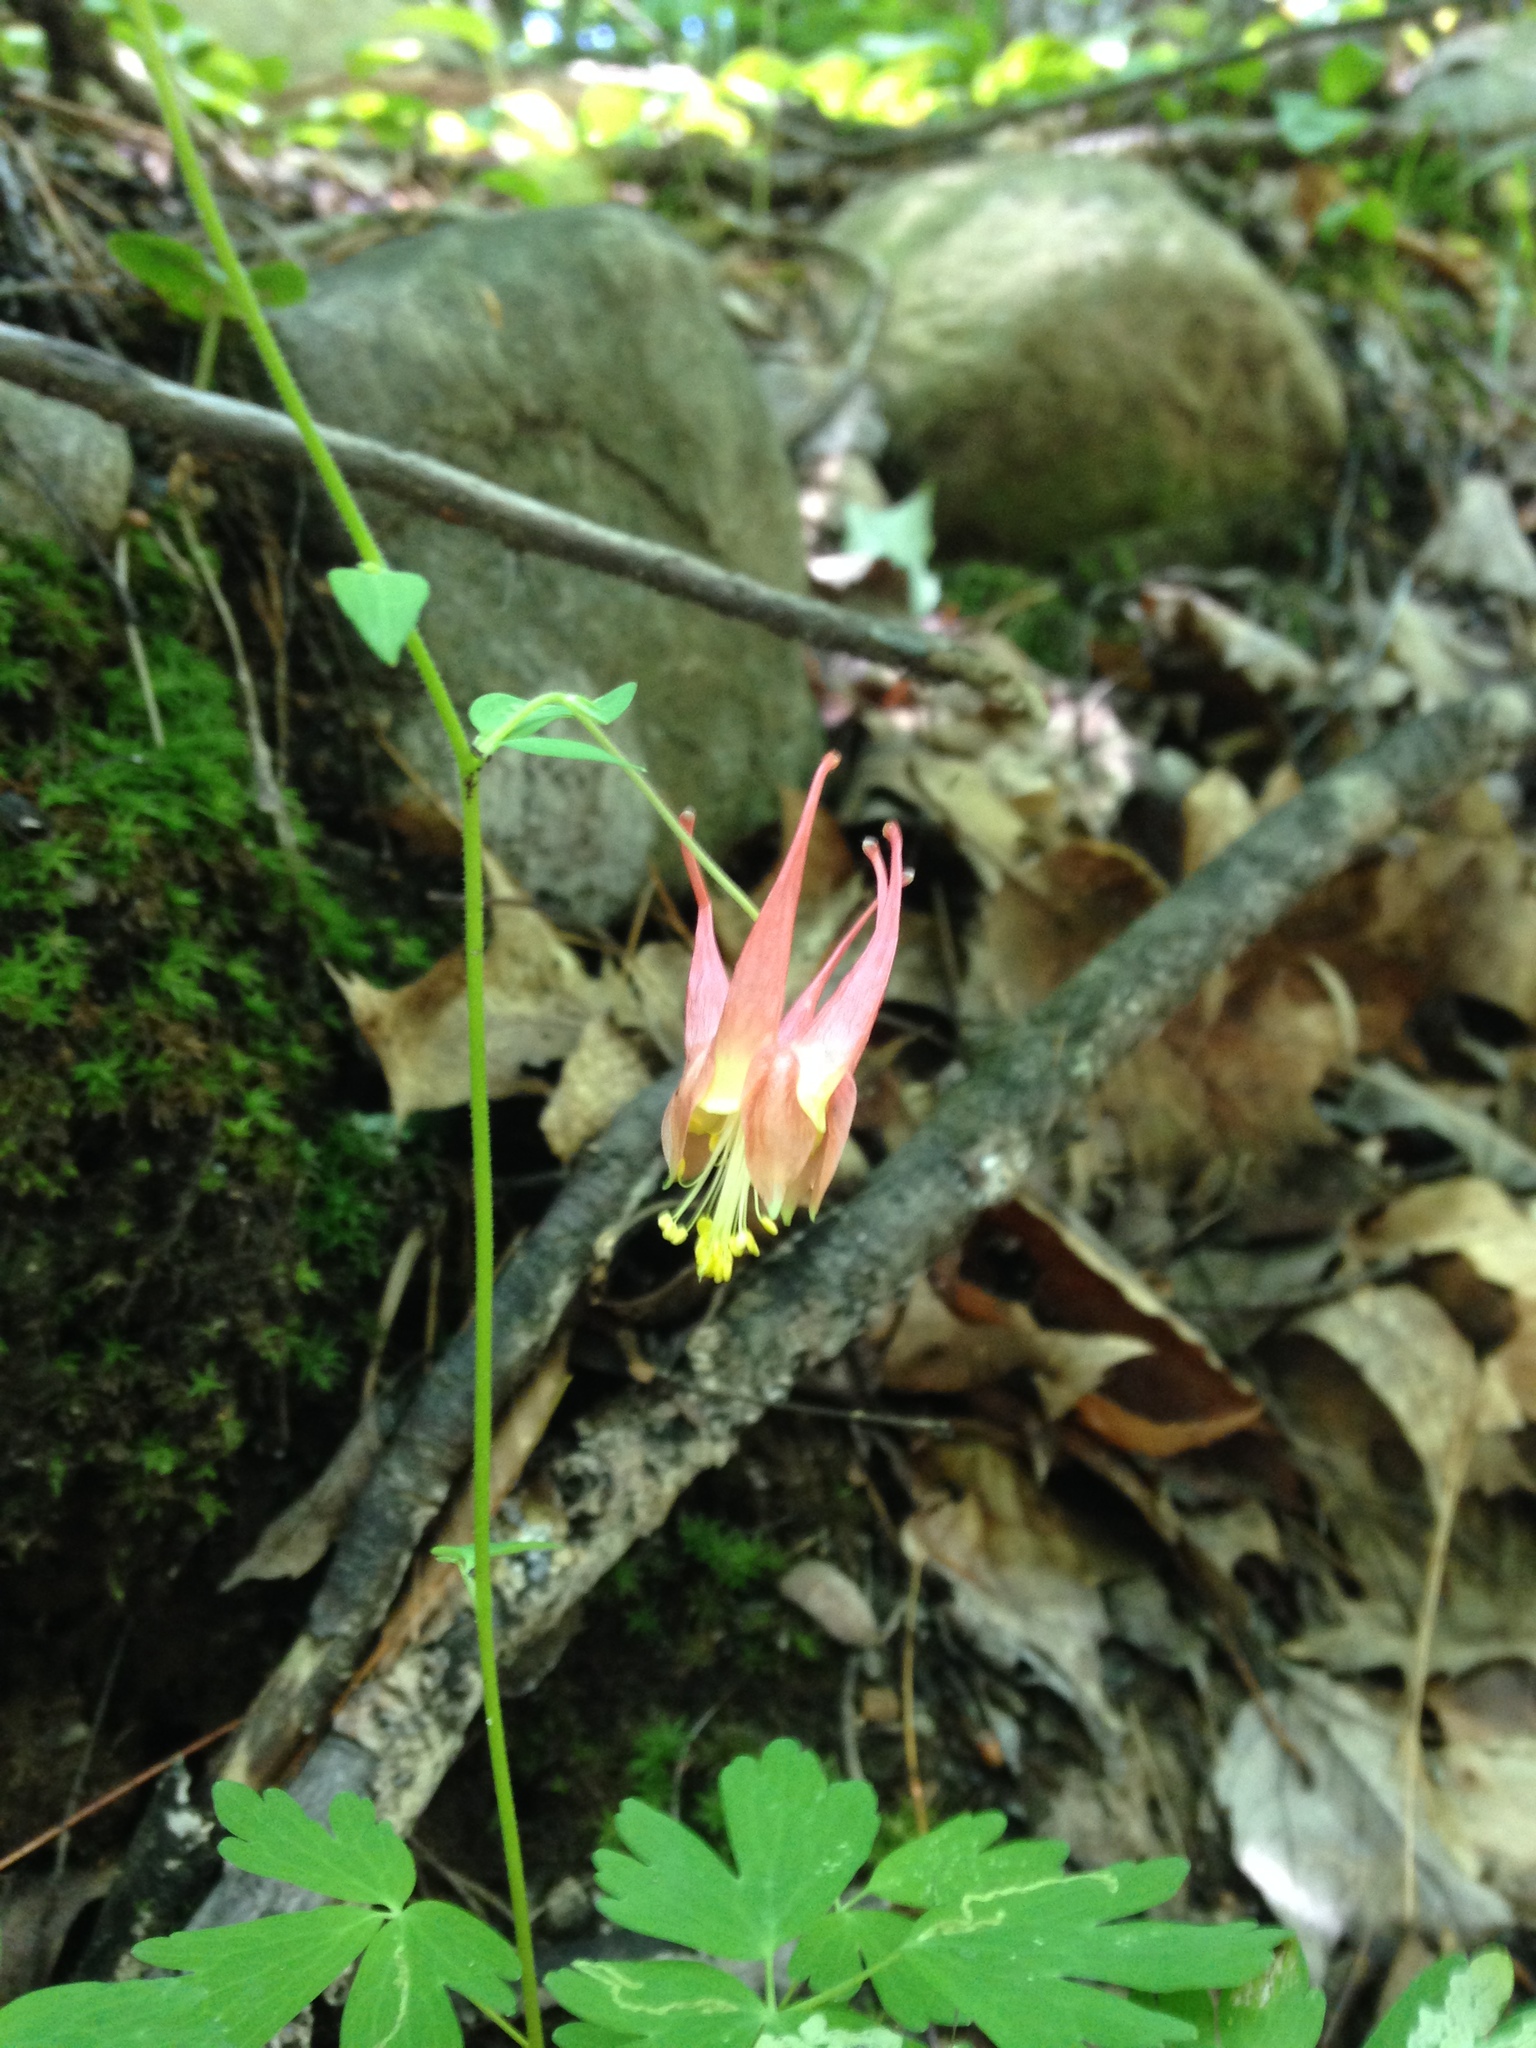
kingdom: Plantae
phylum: Tracheophyta
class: Magnoliopsida
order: Ranunculales
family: Ranunculaceae
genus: Aquilegia
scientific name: Aquilegia canadensis
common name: American columbine
